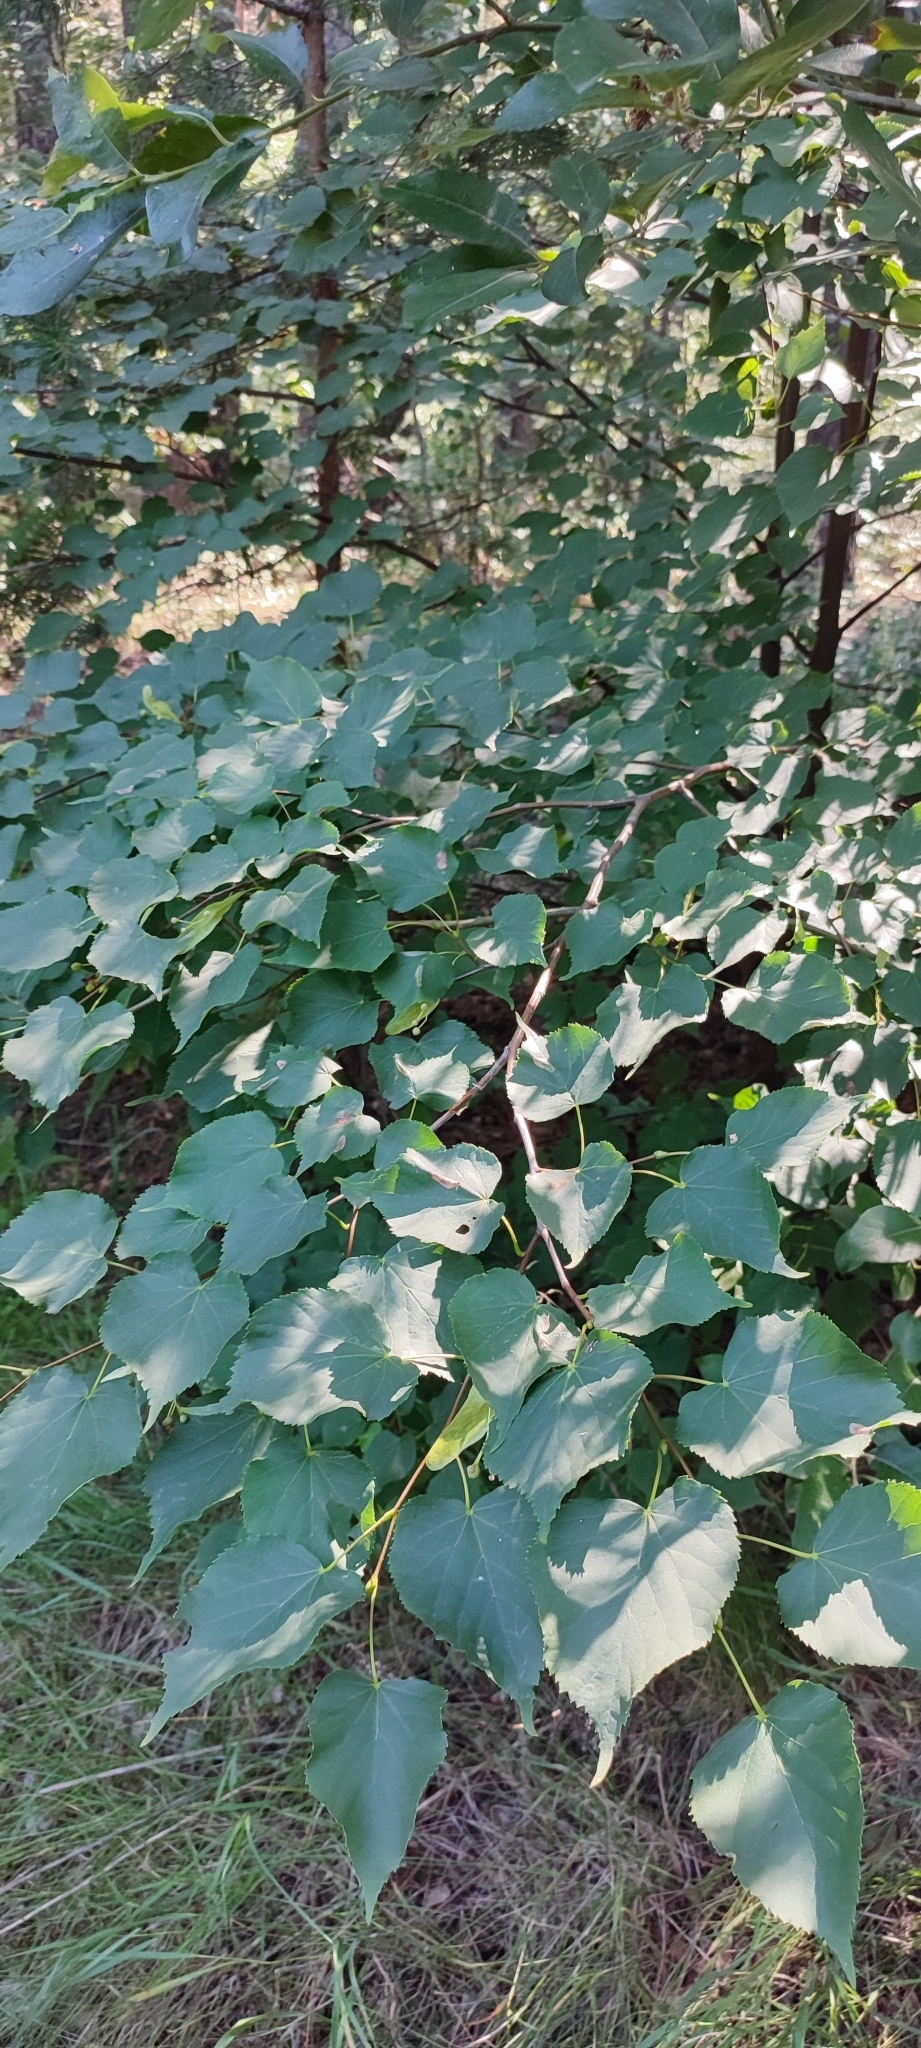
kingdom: Plantae
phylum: Tracheophyta
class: Magnoliopsida
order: Malvales
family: Malvaceae
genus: Tilia
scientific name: Tilia cordata
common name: Small-leaved lime
